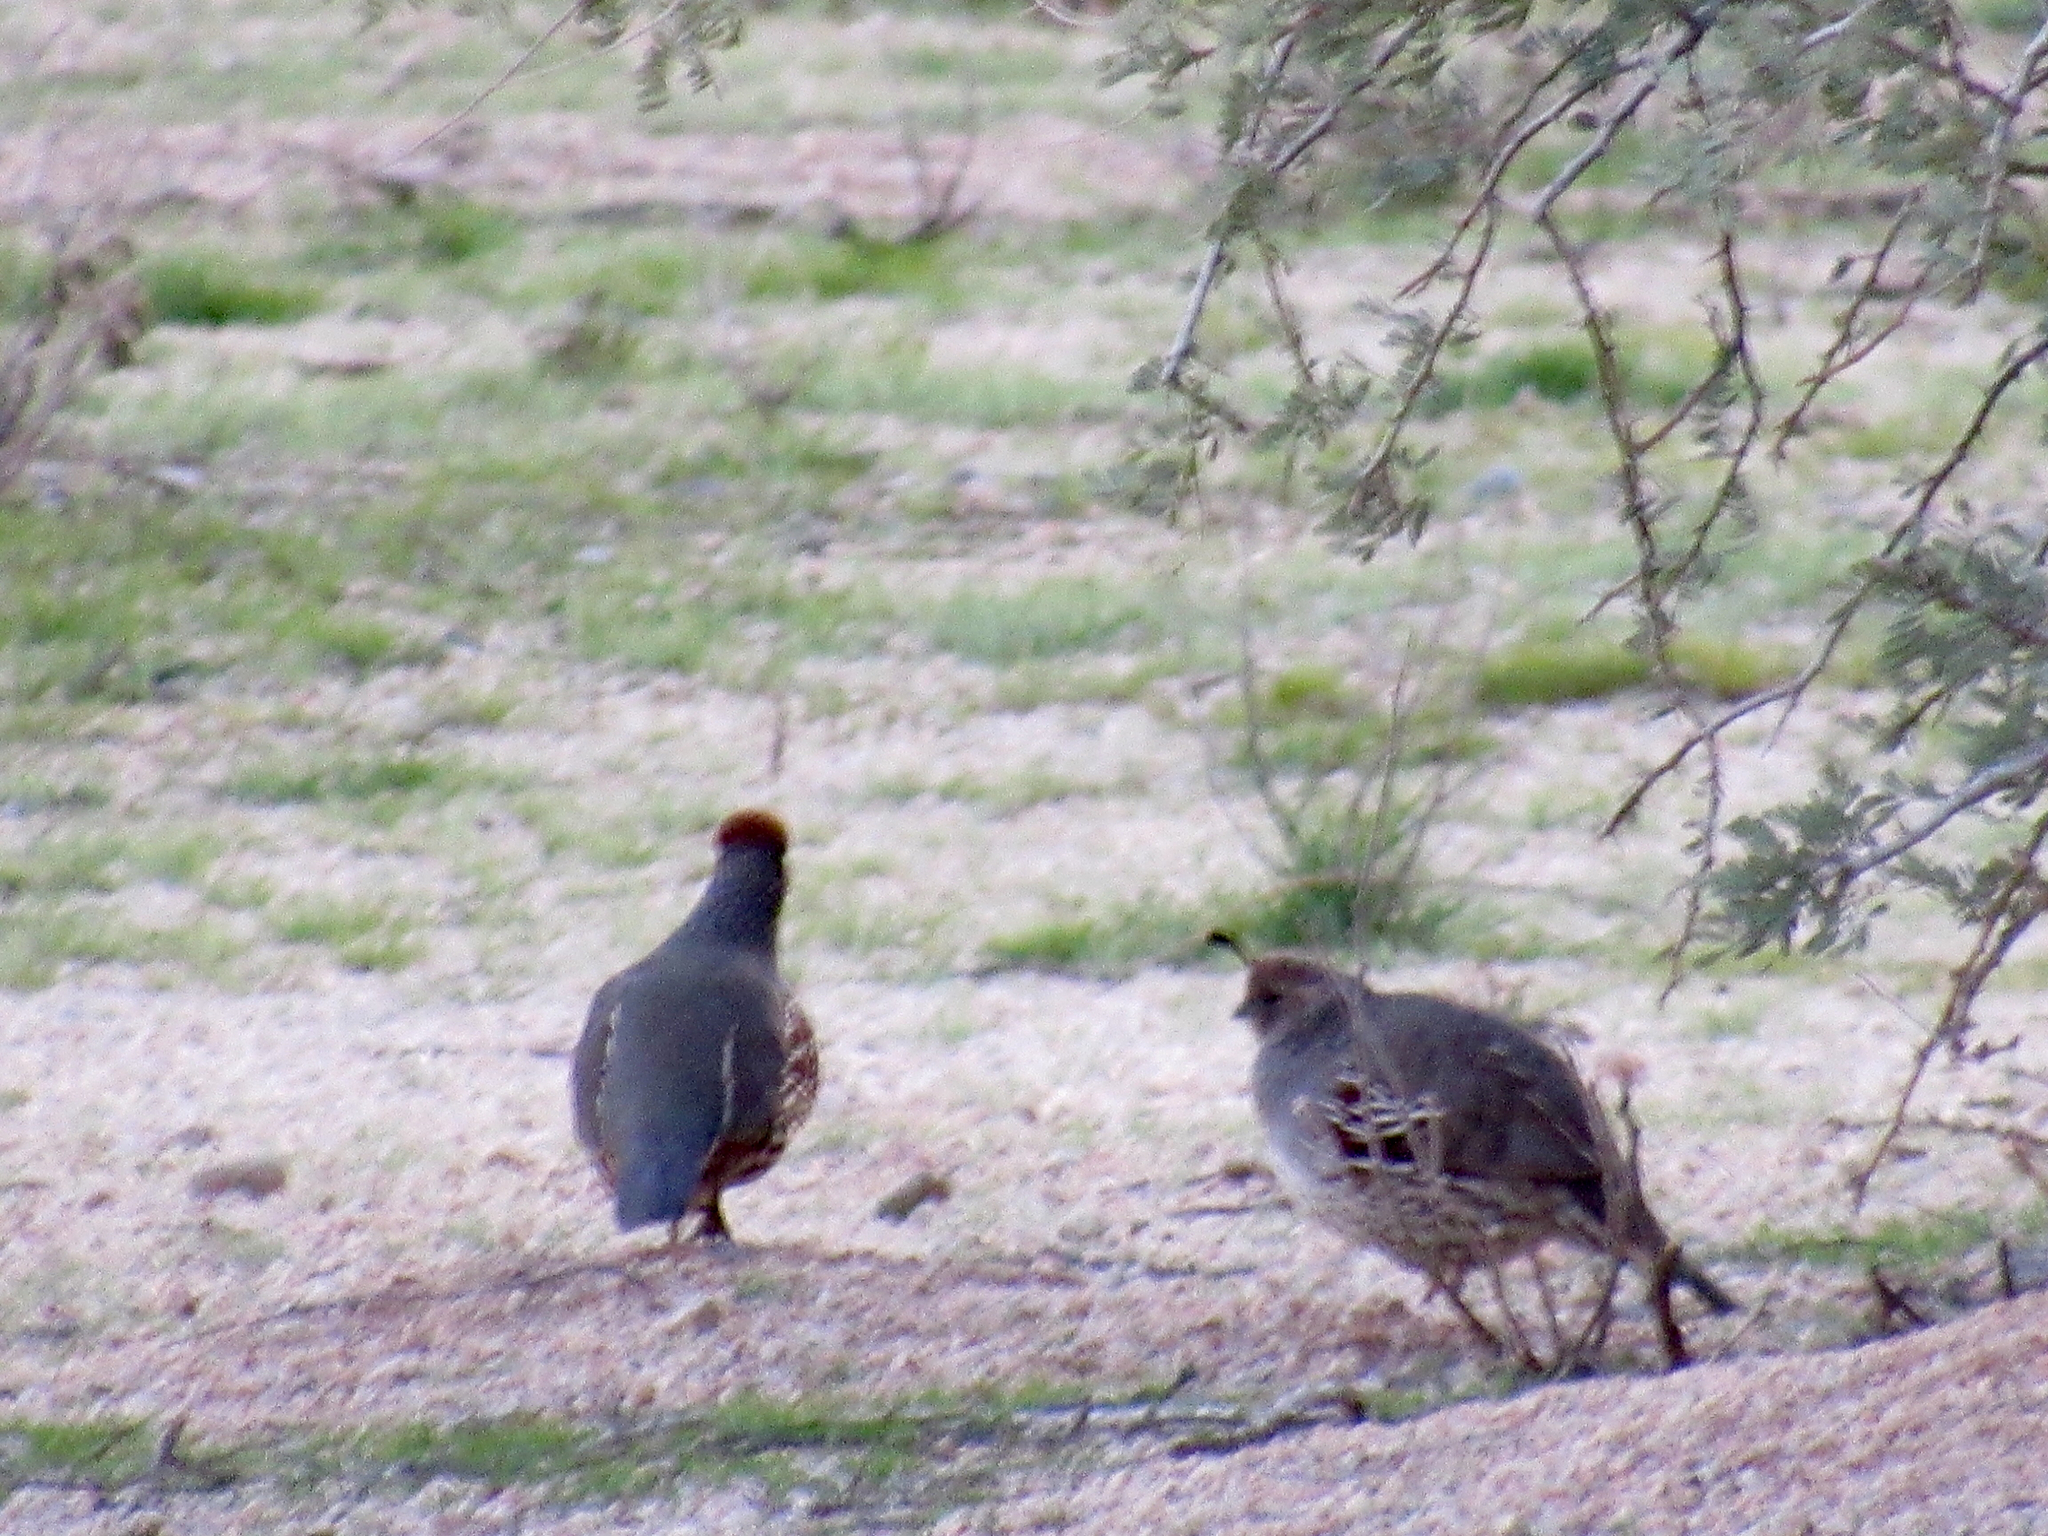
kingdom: Animalia
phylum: Chordata
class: Aves
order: Galliformes
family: Odontophoridae
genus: Callipepla
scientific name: Callipepla gambelii
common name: Gambel's quail
